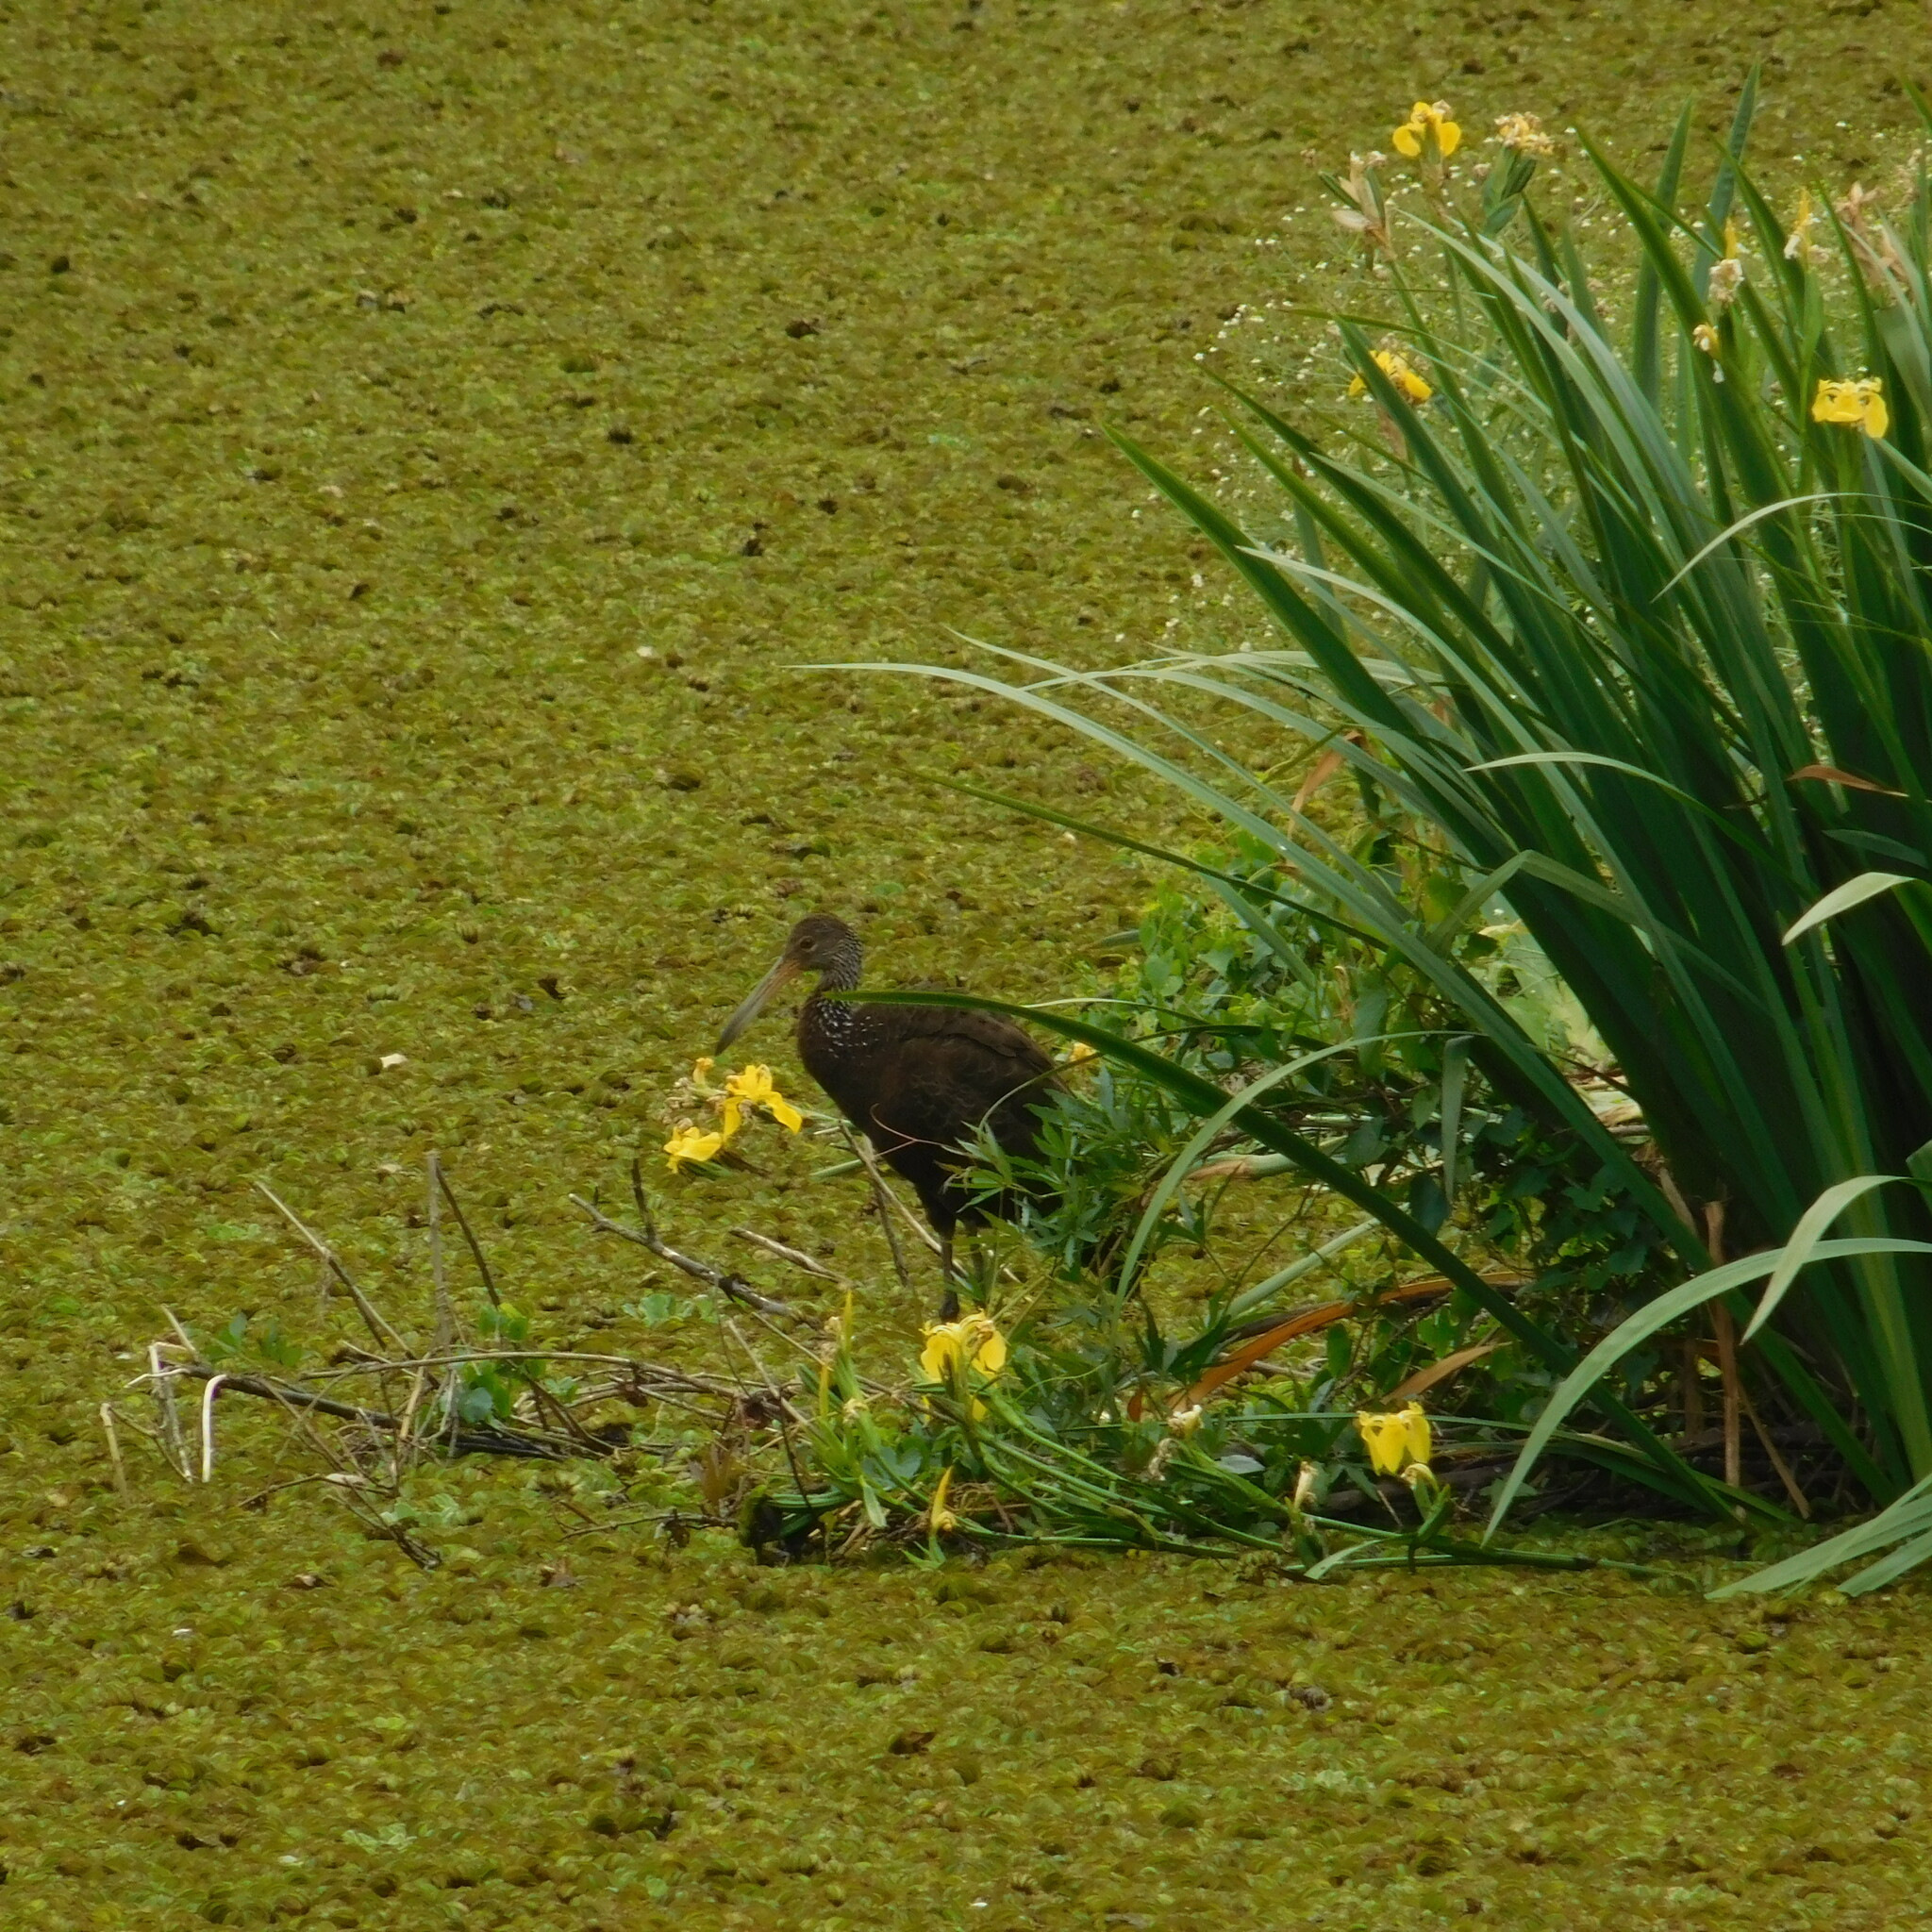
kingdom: Animalia
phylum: Chordata
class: Aves
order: Gruiformes
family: Aramidae
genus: Aramus
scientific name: Aramus guarauna
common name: Limpkin
